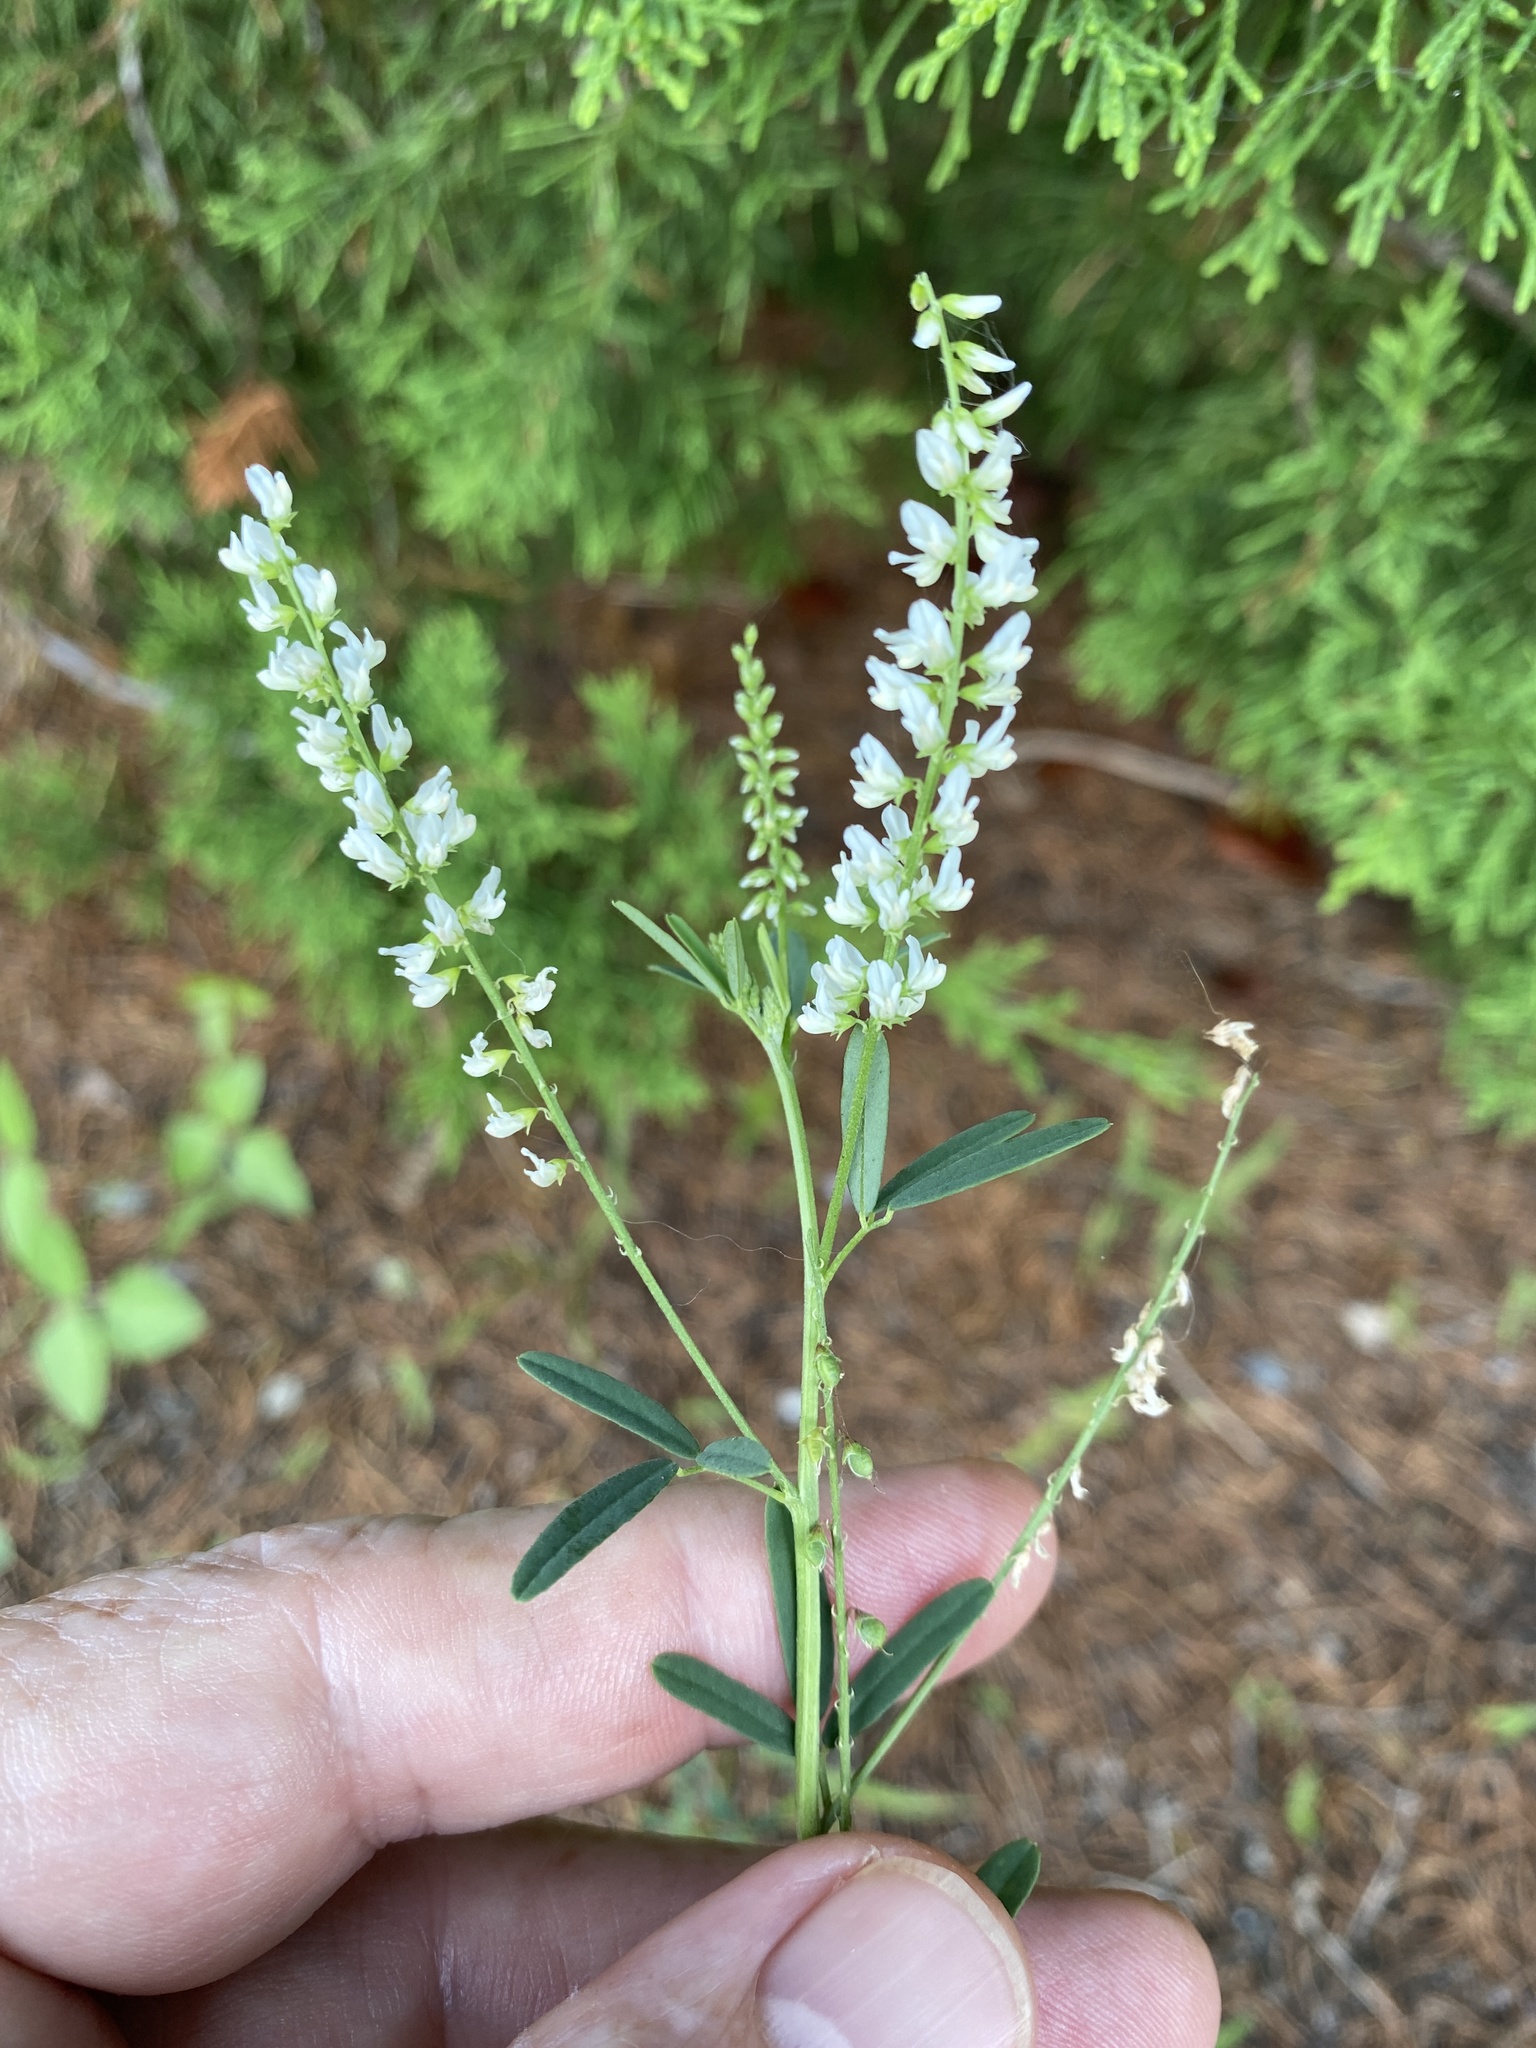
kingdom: Plantae
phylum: Tracheophyta
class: Magnoliopsida
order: Fabales
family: Fabaceae
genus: Melilotus
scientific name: Melilotus albus
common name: White melilot
